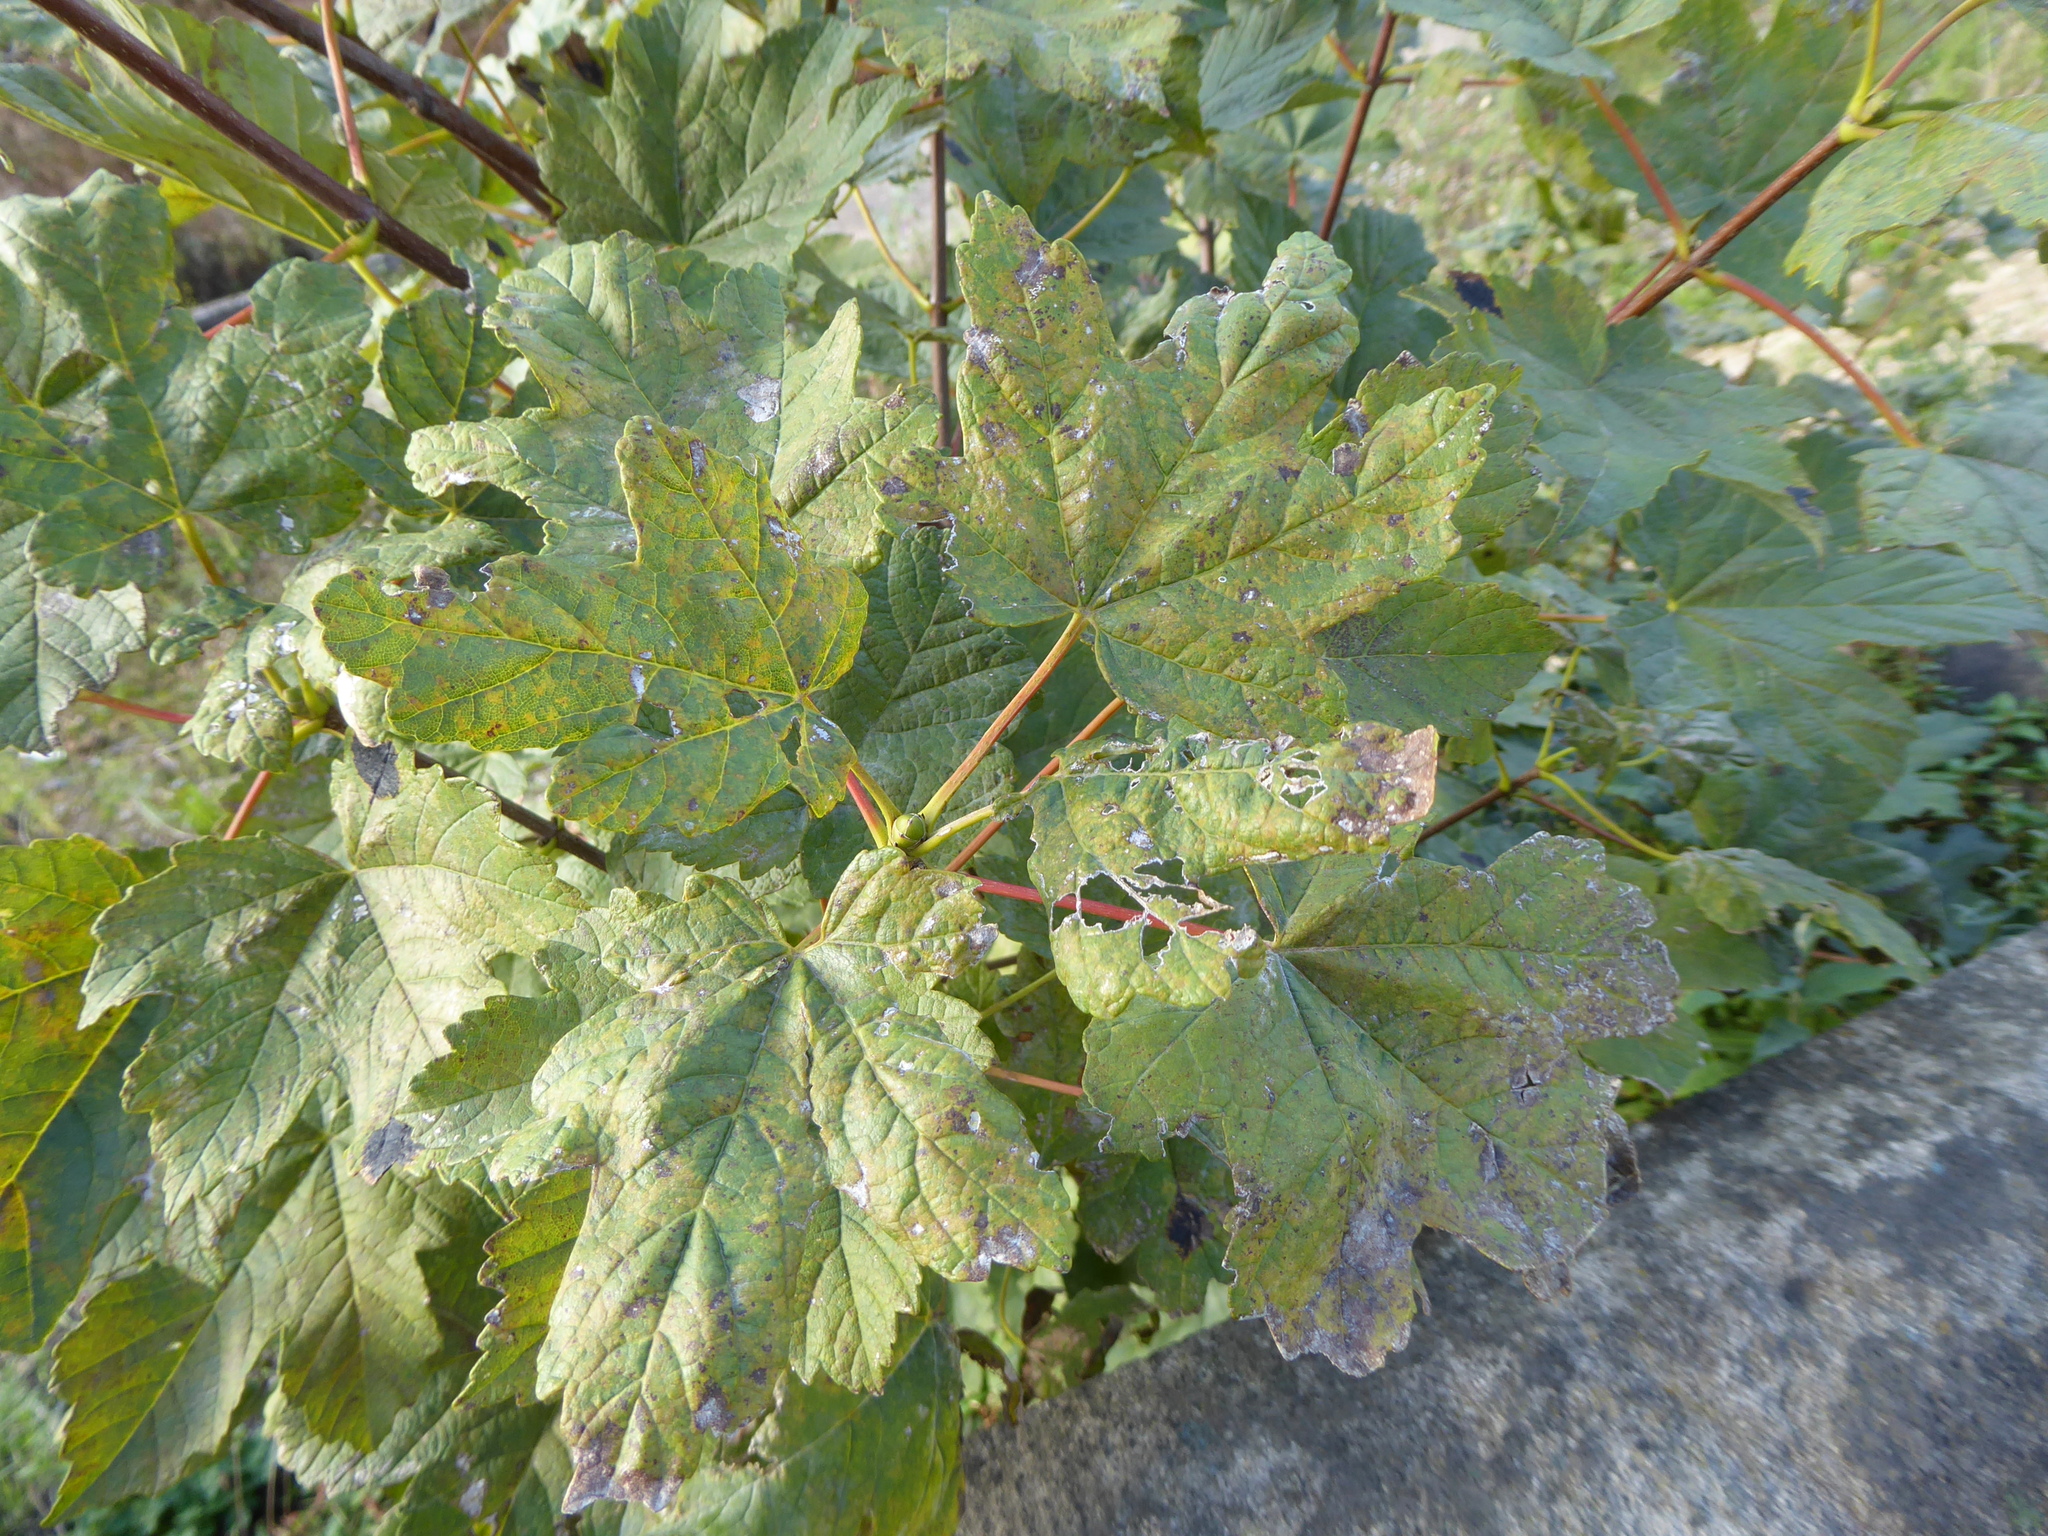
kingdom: Plantae
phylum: Tracheophyta
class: Magnoliopsida
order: Sapindales
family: Sapindaceae
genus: Acer
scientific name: Acer pseudoplatanus
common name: Sycamore
